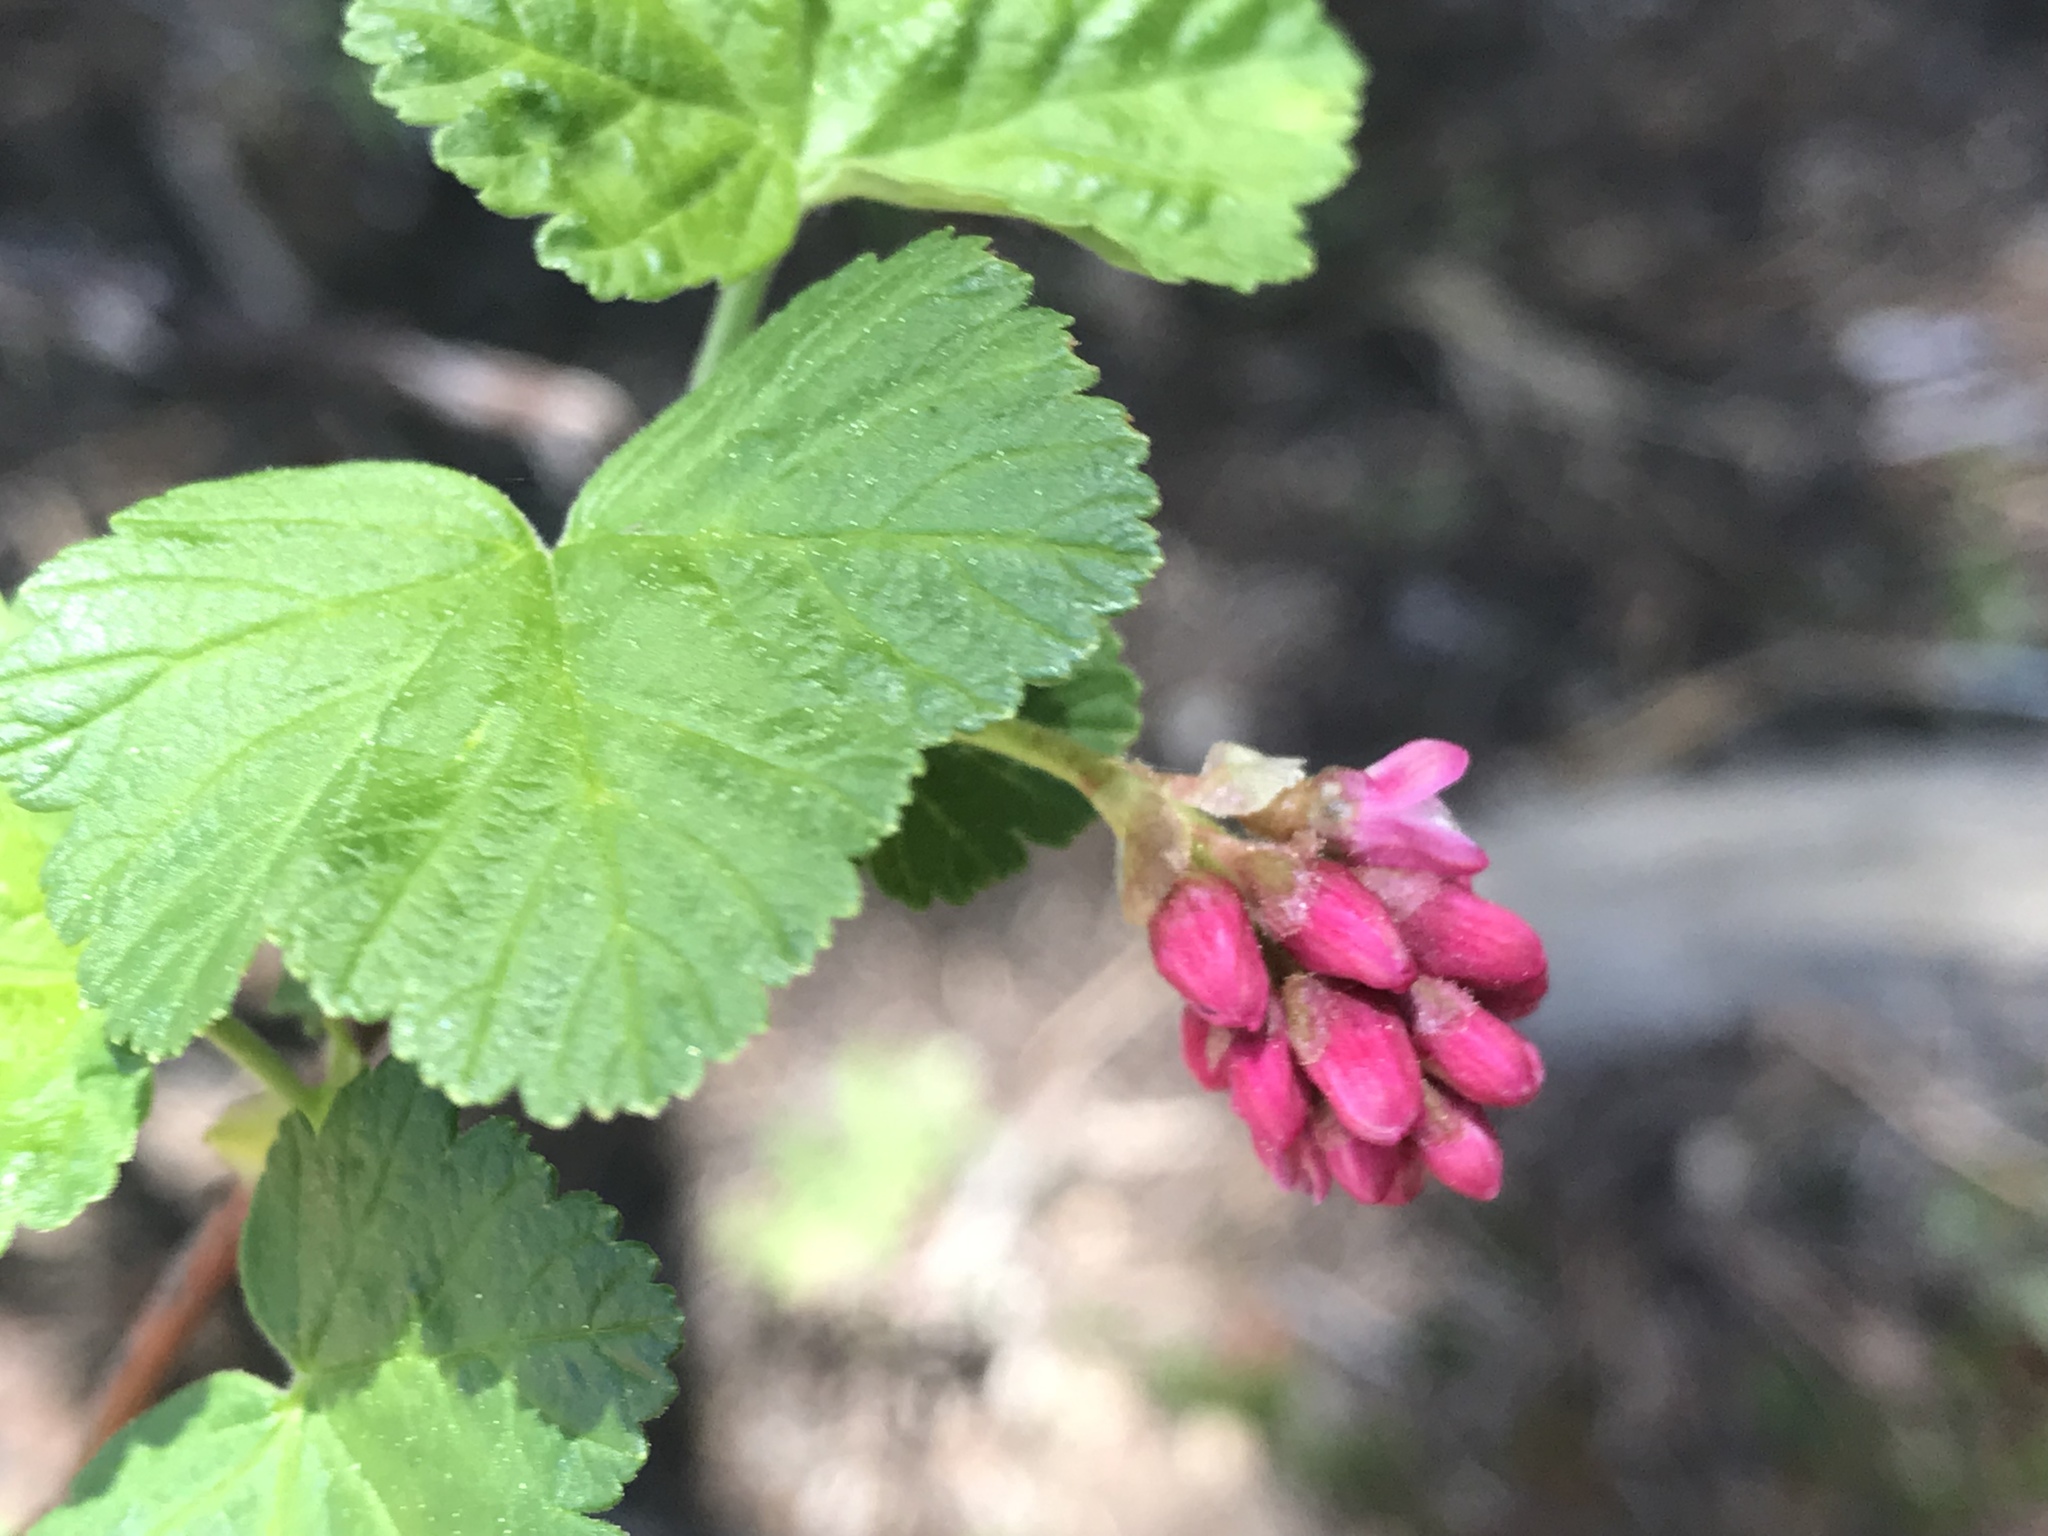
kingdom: Plantae
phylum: Tracheophyta
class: Magnoliopsida
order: Saxifragales
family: Grossulariaceae
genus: Ribes
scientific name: Ribes nevadense
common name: Mountain pink currant
